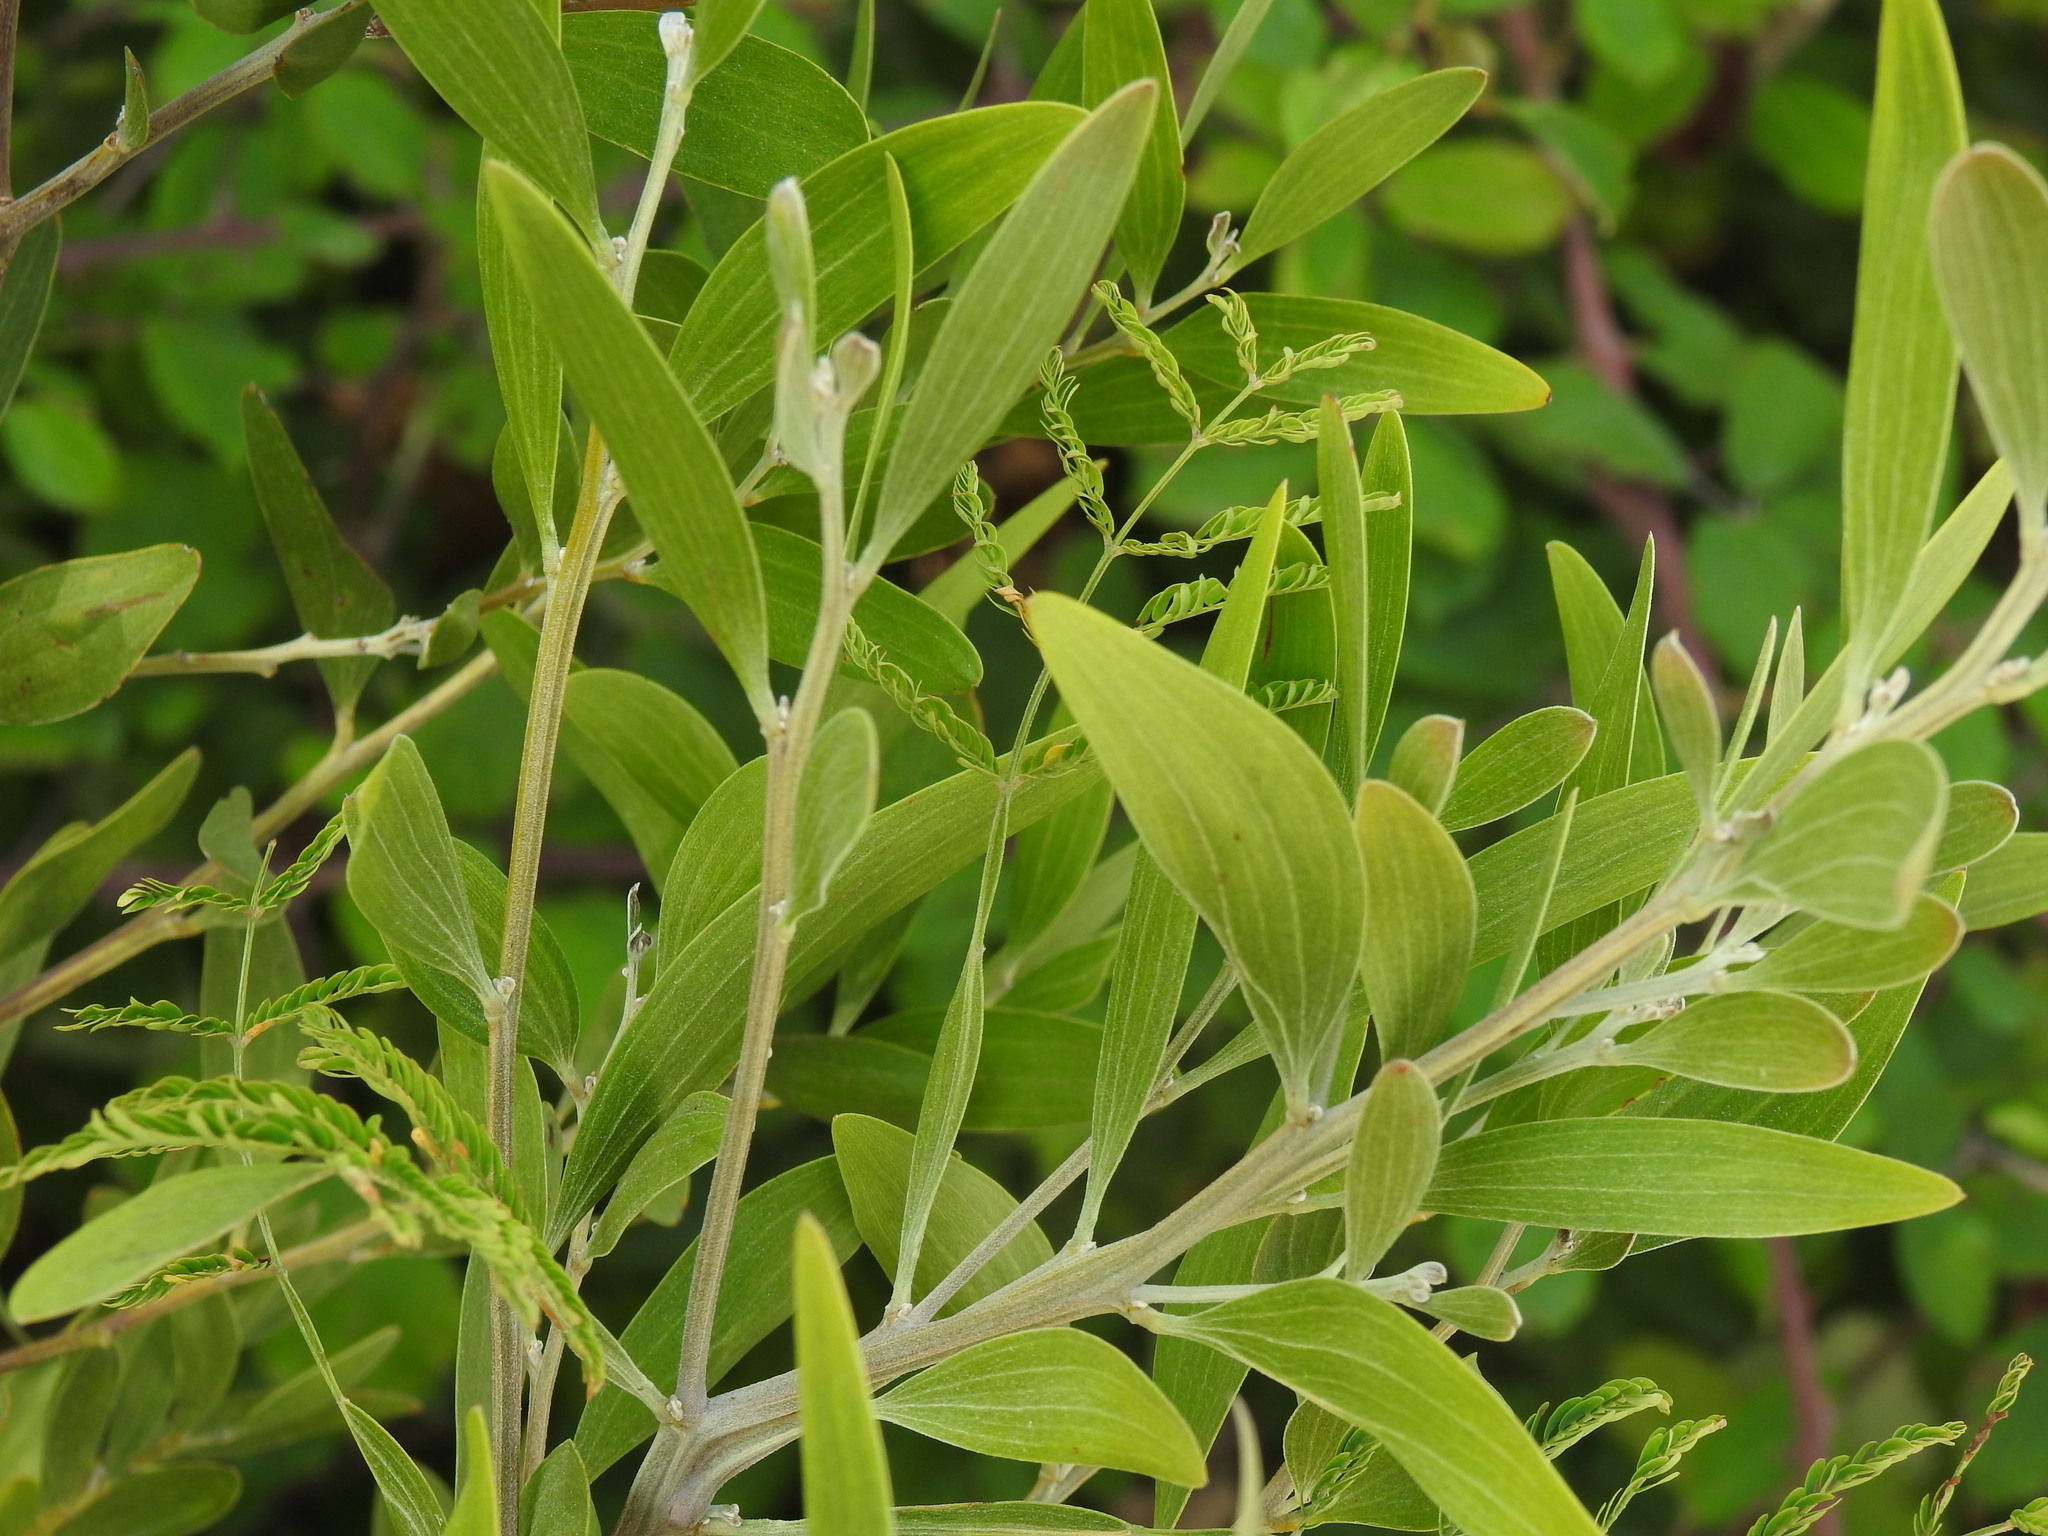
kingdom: Plantae
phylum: Tracheophyta
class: Magnoliopsida
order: Fabales
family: Fabaceae
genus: Acacia
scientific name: Acacia melanoxylon
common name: Blackwood
